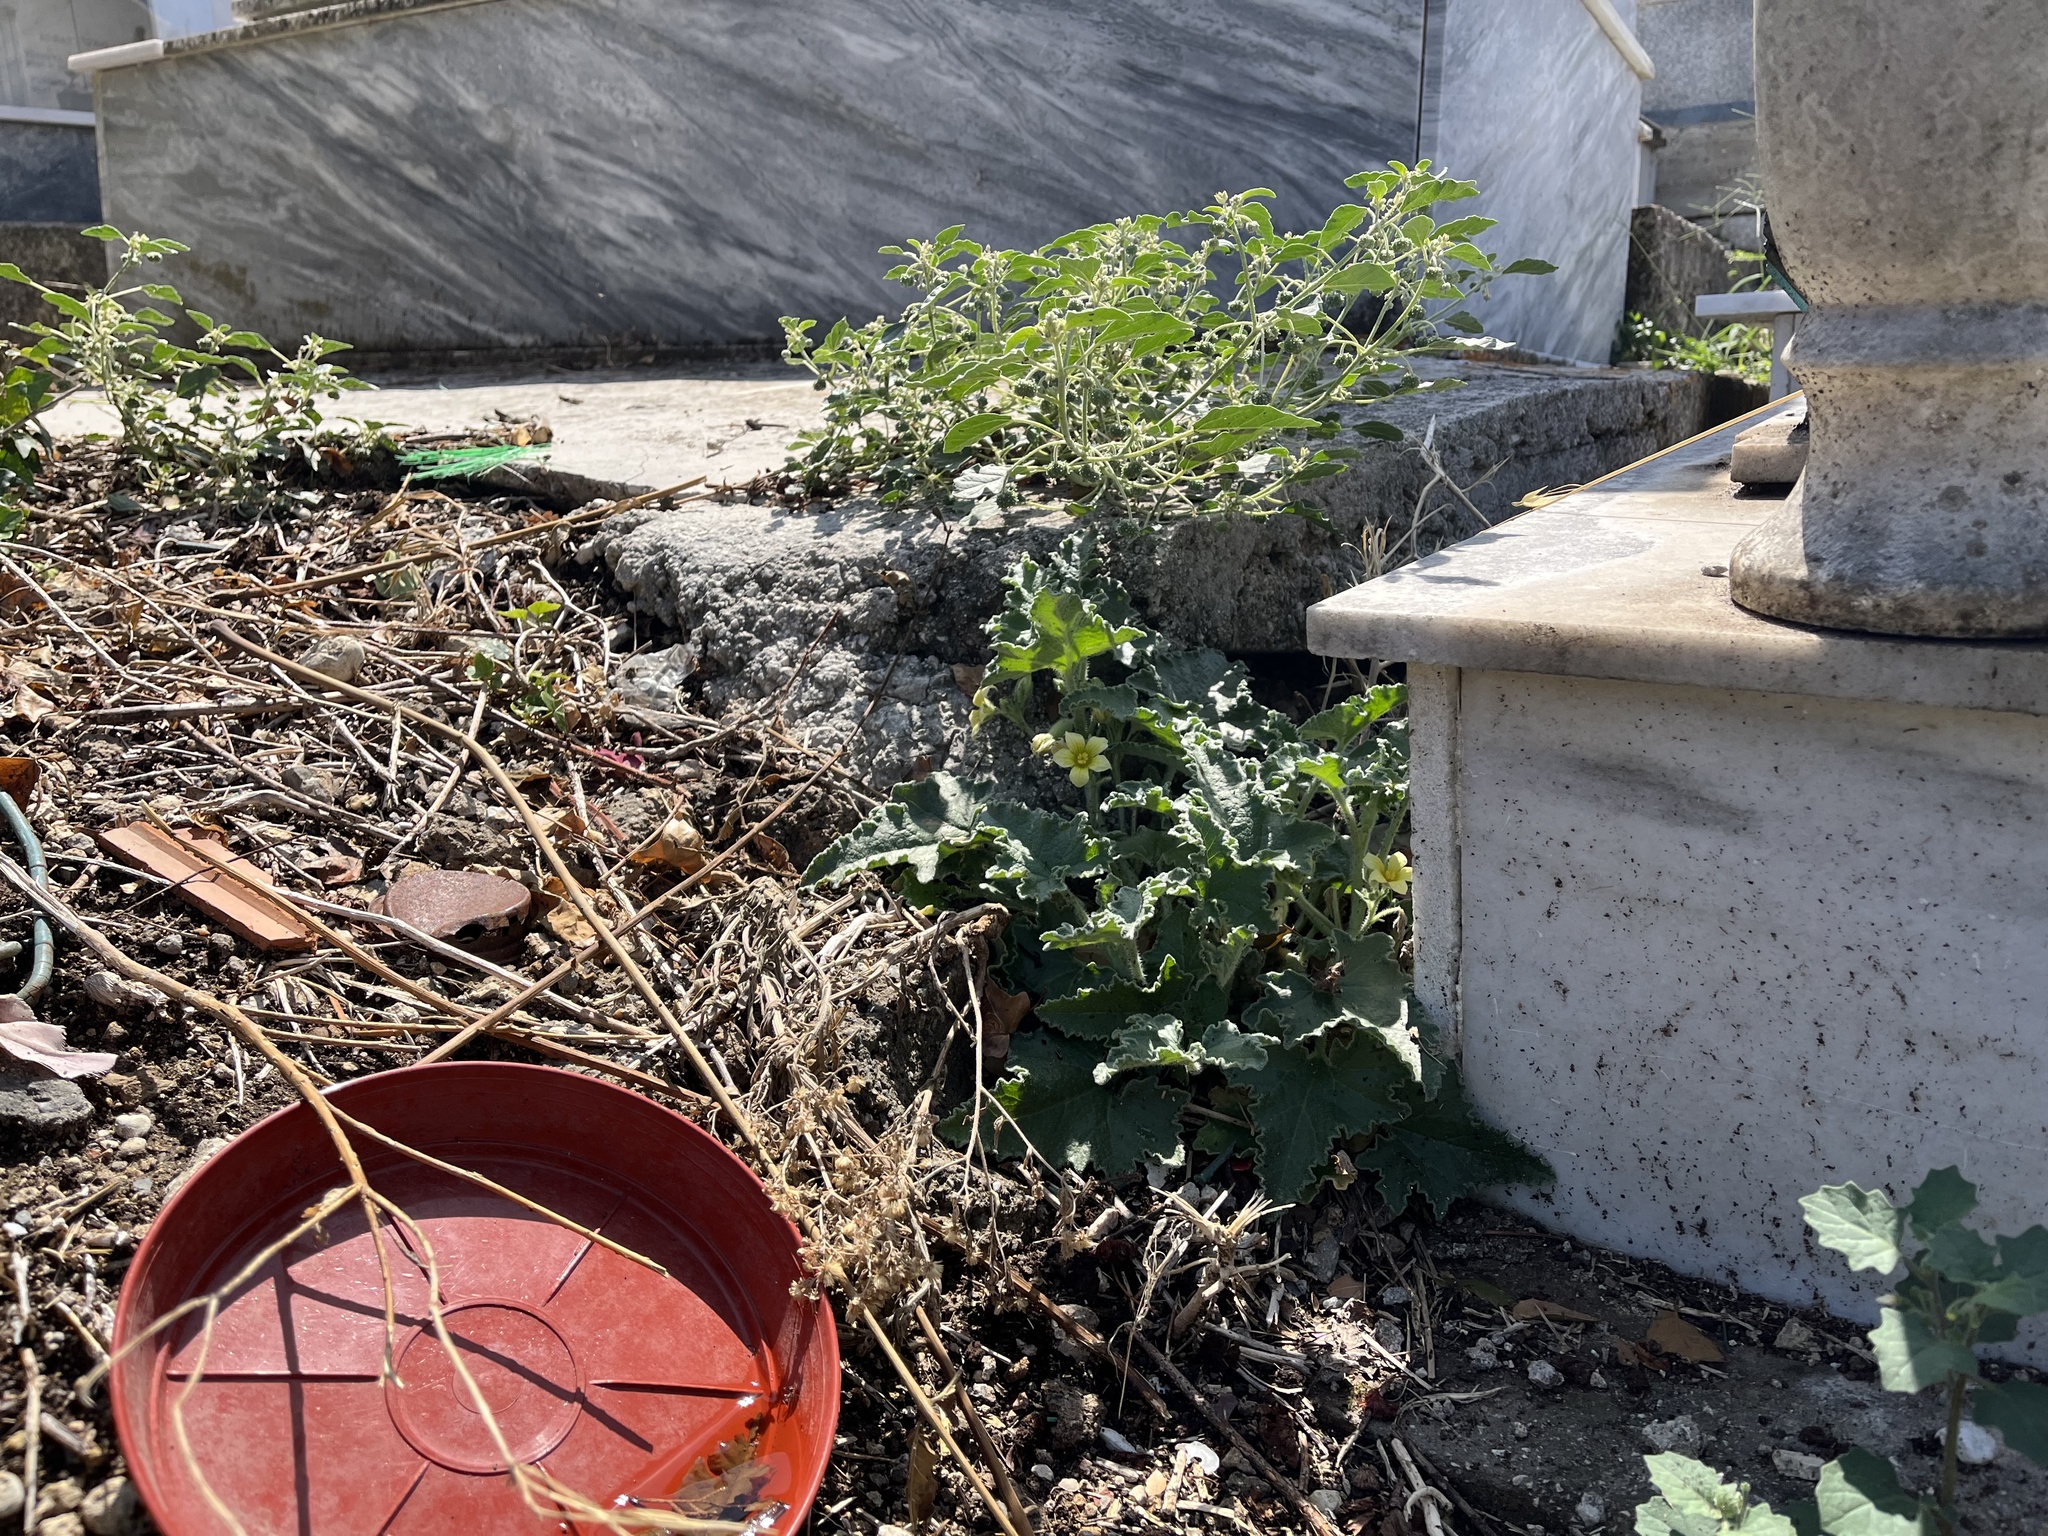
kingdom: Plantae
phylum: Tracheophyta
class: Magnoliopsida
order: Cucurbitales
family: Cucurbitaceae
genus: Ecballium
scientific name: Ecballium elaterium
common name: Squirting cucumber
